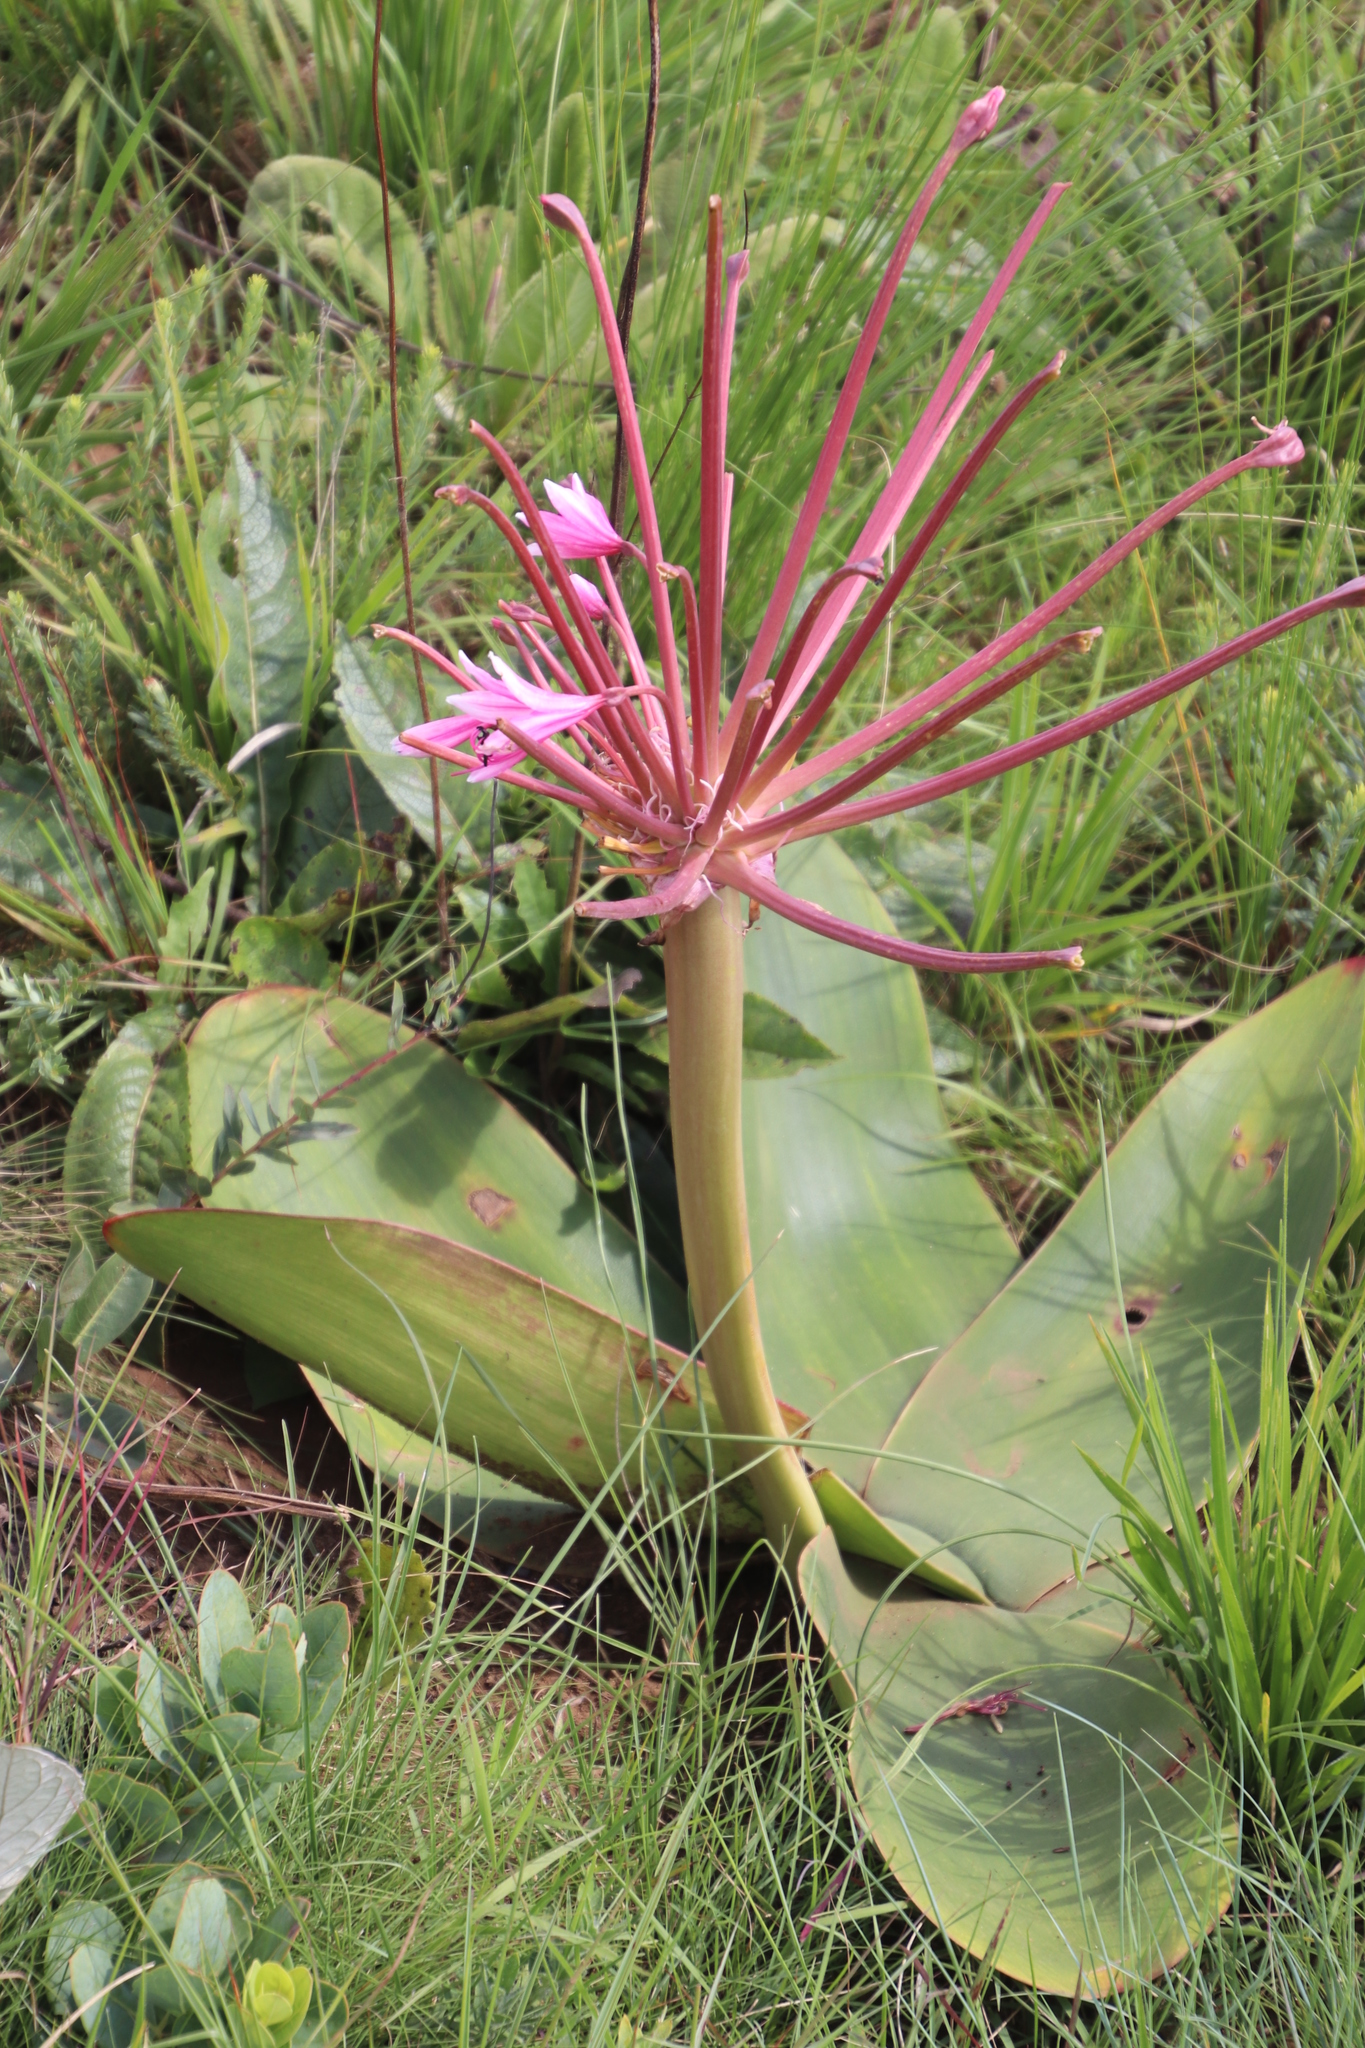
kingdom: Plantae
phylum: Tracheophyta
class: Liliopsida
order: Asparagales
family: Amaryllidaceae
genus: Brunsvigia
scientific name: Brunsvigia radulosa
